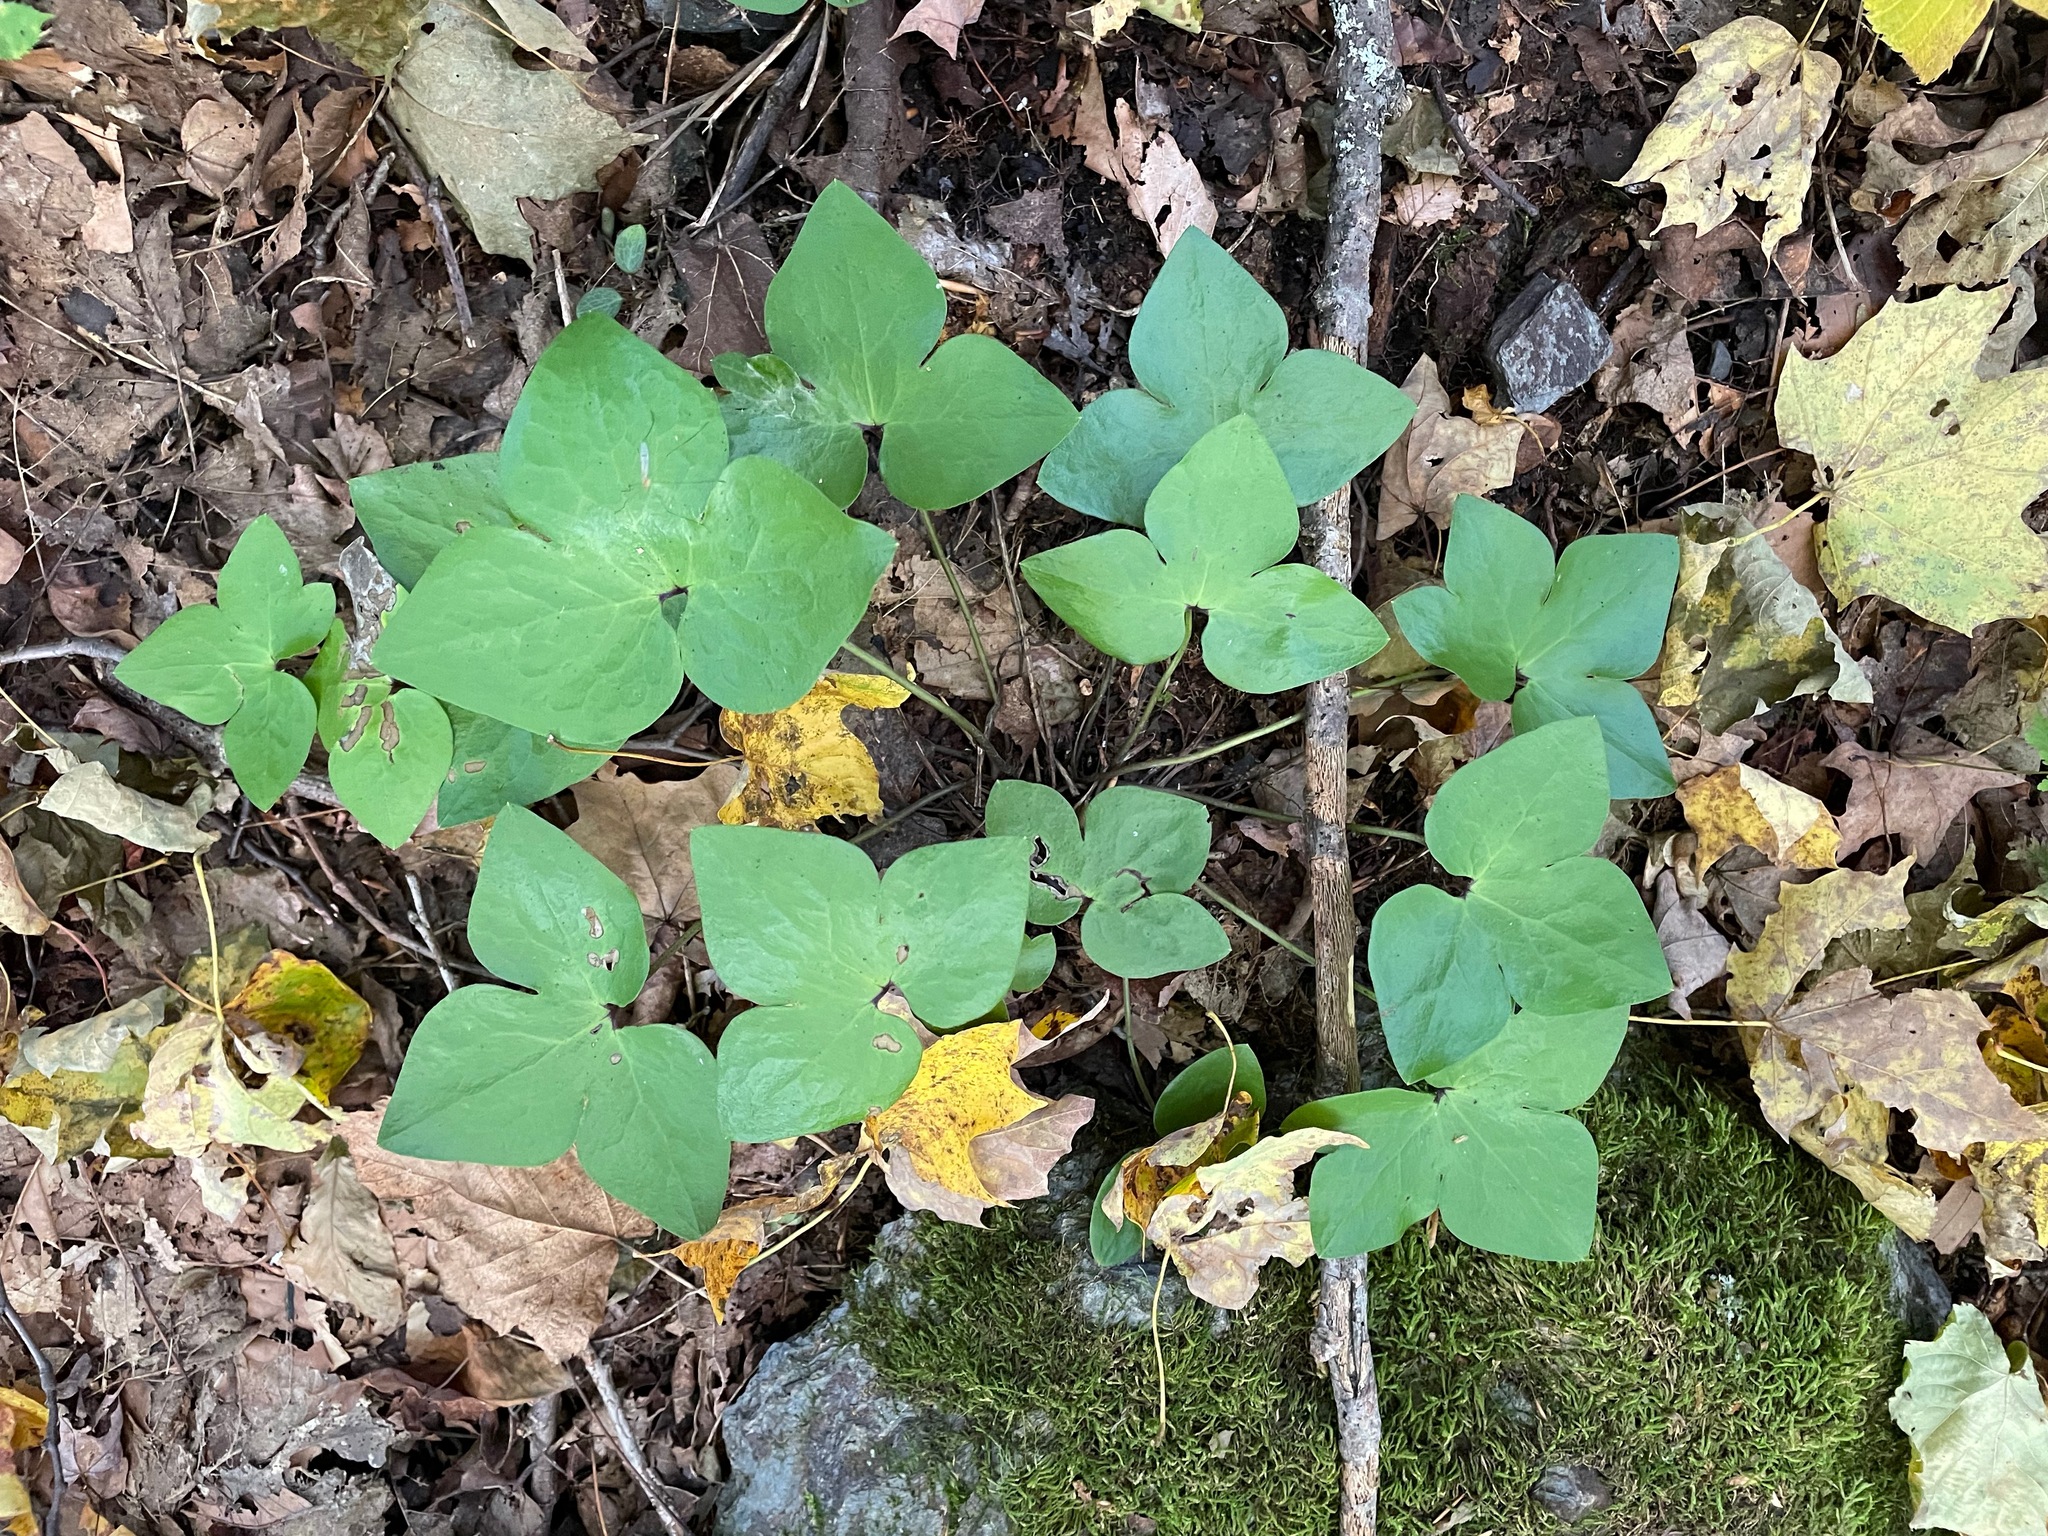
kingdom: Plantae
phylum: Tracheophyta
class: Magnoliopsida
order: Ranunculales
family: Ranunculaceae
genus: Hepatica
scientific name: Hepatica acutiloba
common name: Sharp-lobed hepatica
